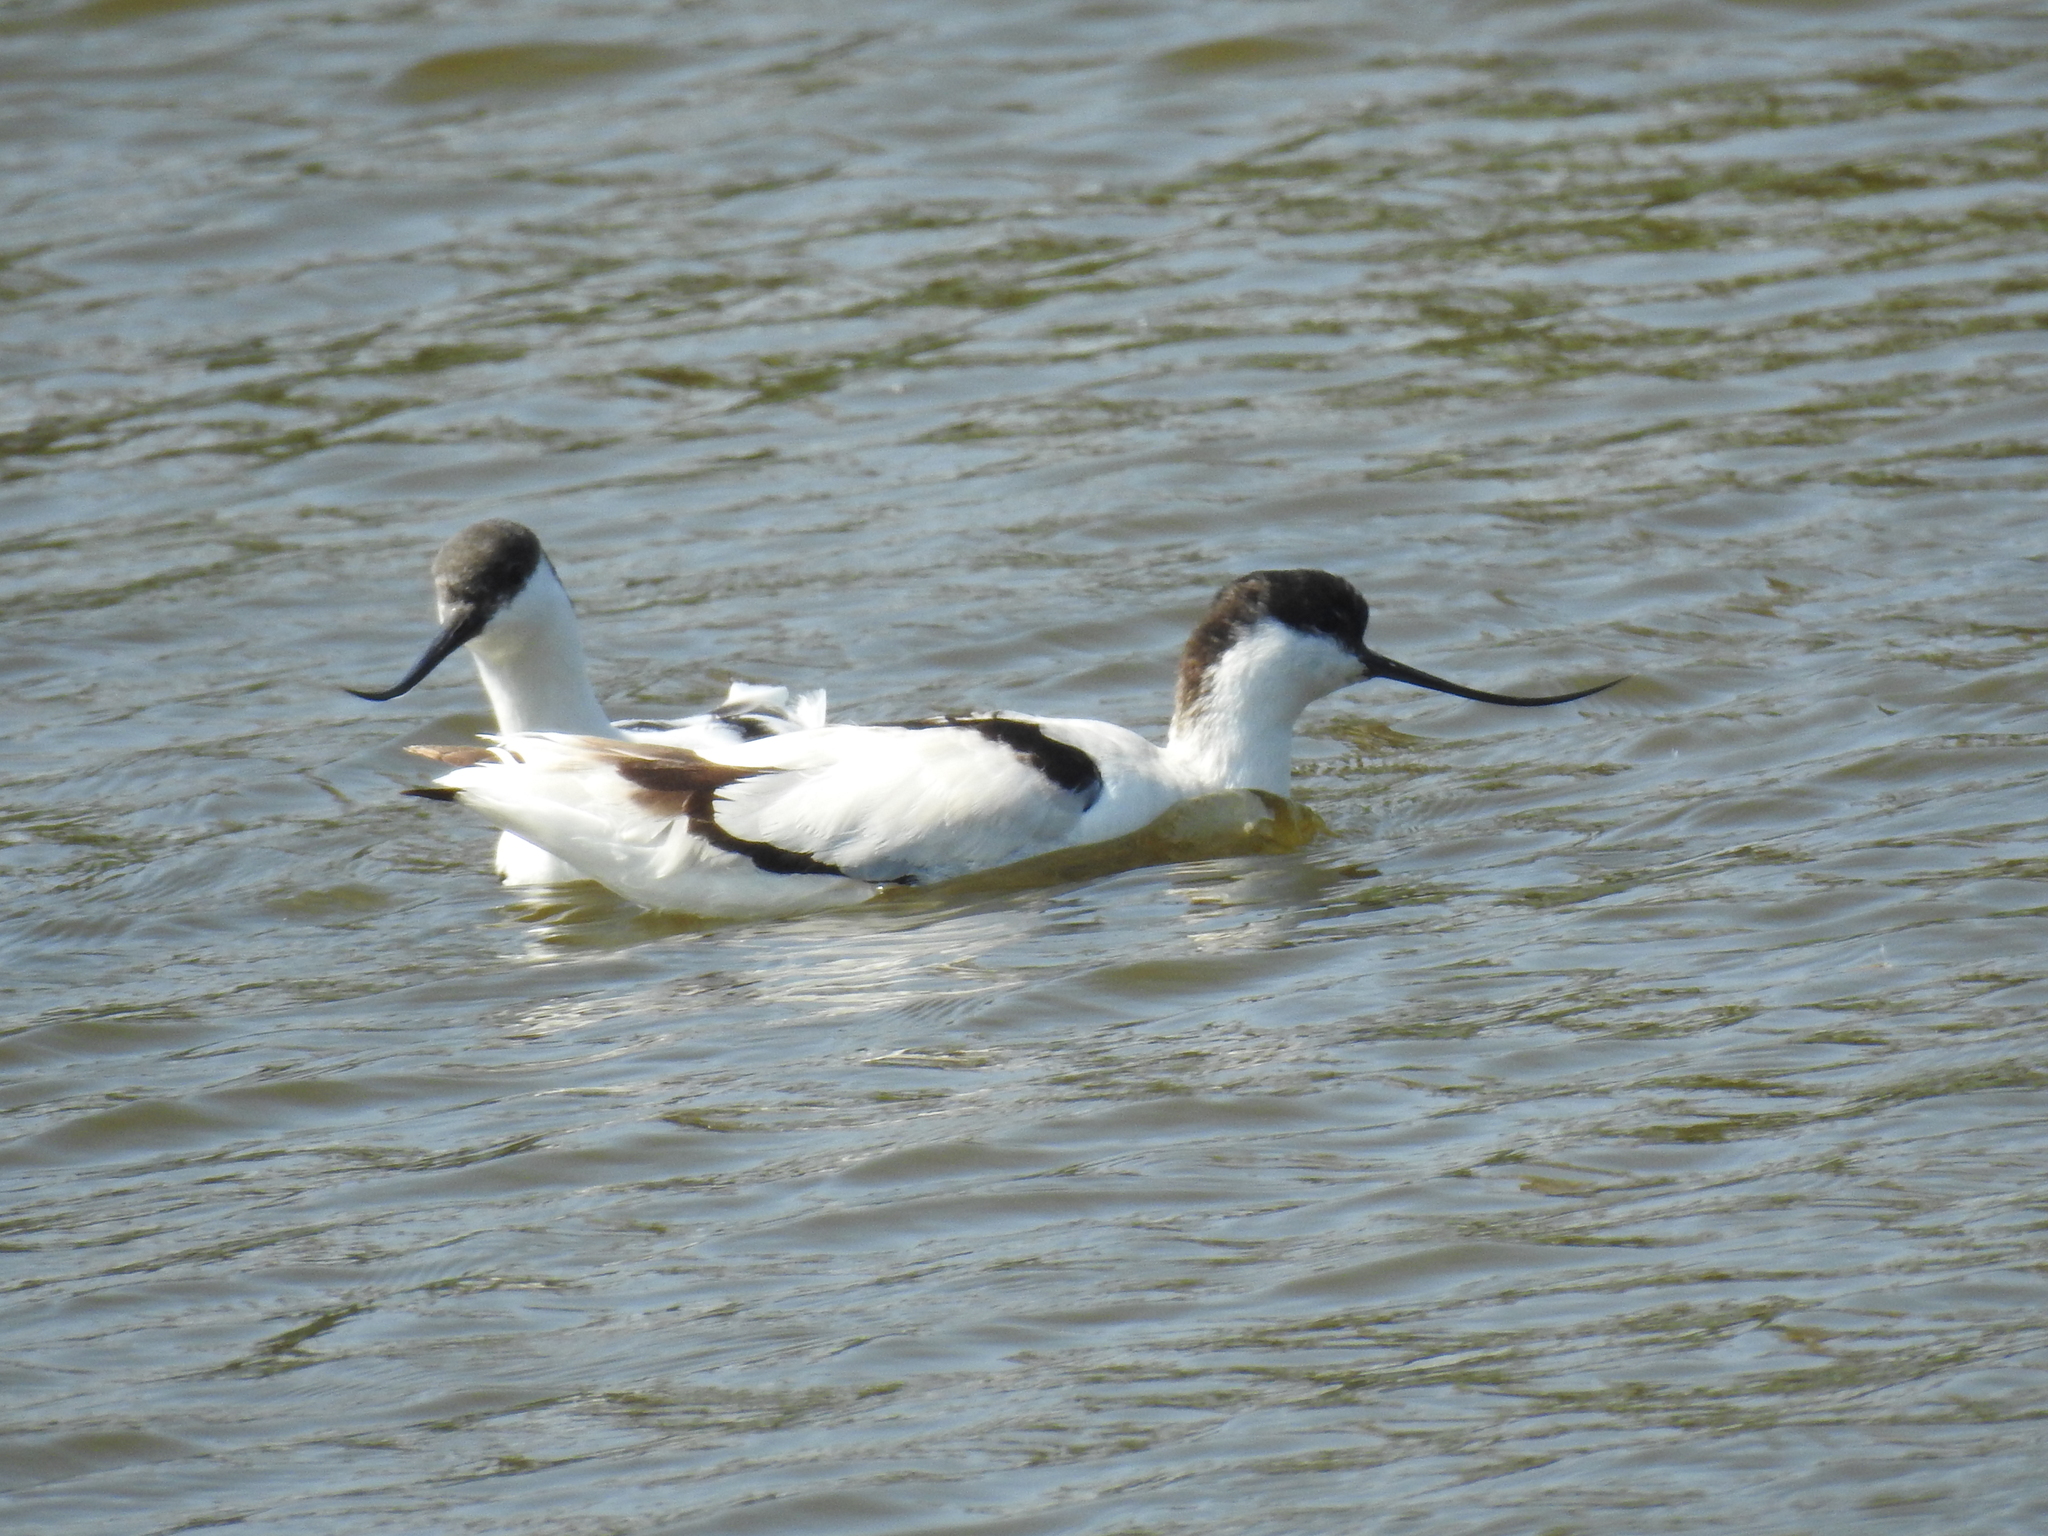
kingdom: Animalia
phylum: Chordata
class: Aves
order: Charadriiformes
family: Recurvirostridae
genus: Recurvirostra
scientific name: Recurvirostra avosetta
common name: Pied avocet
